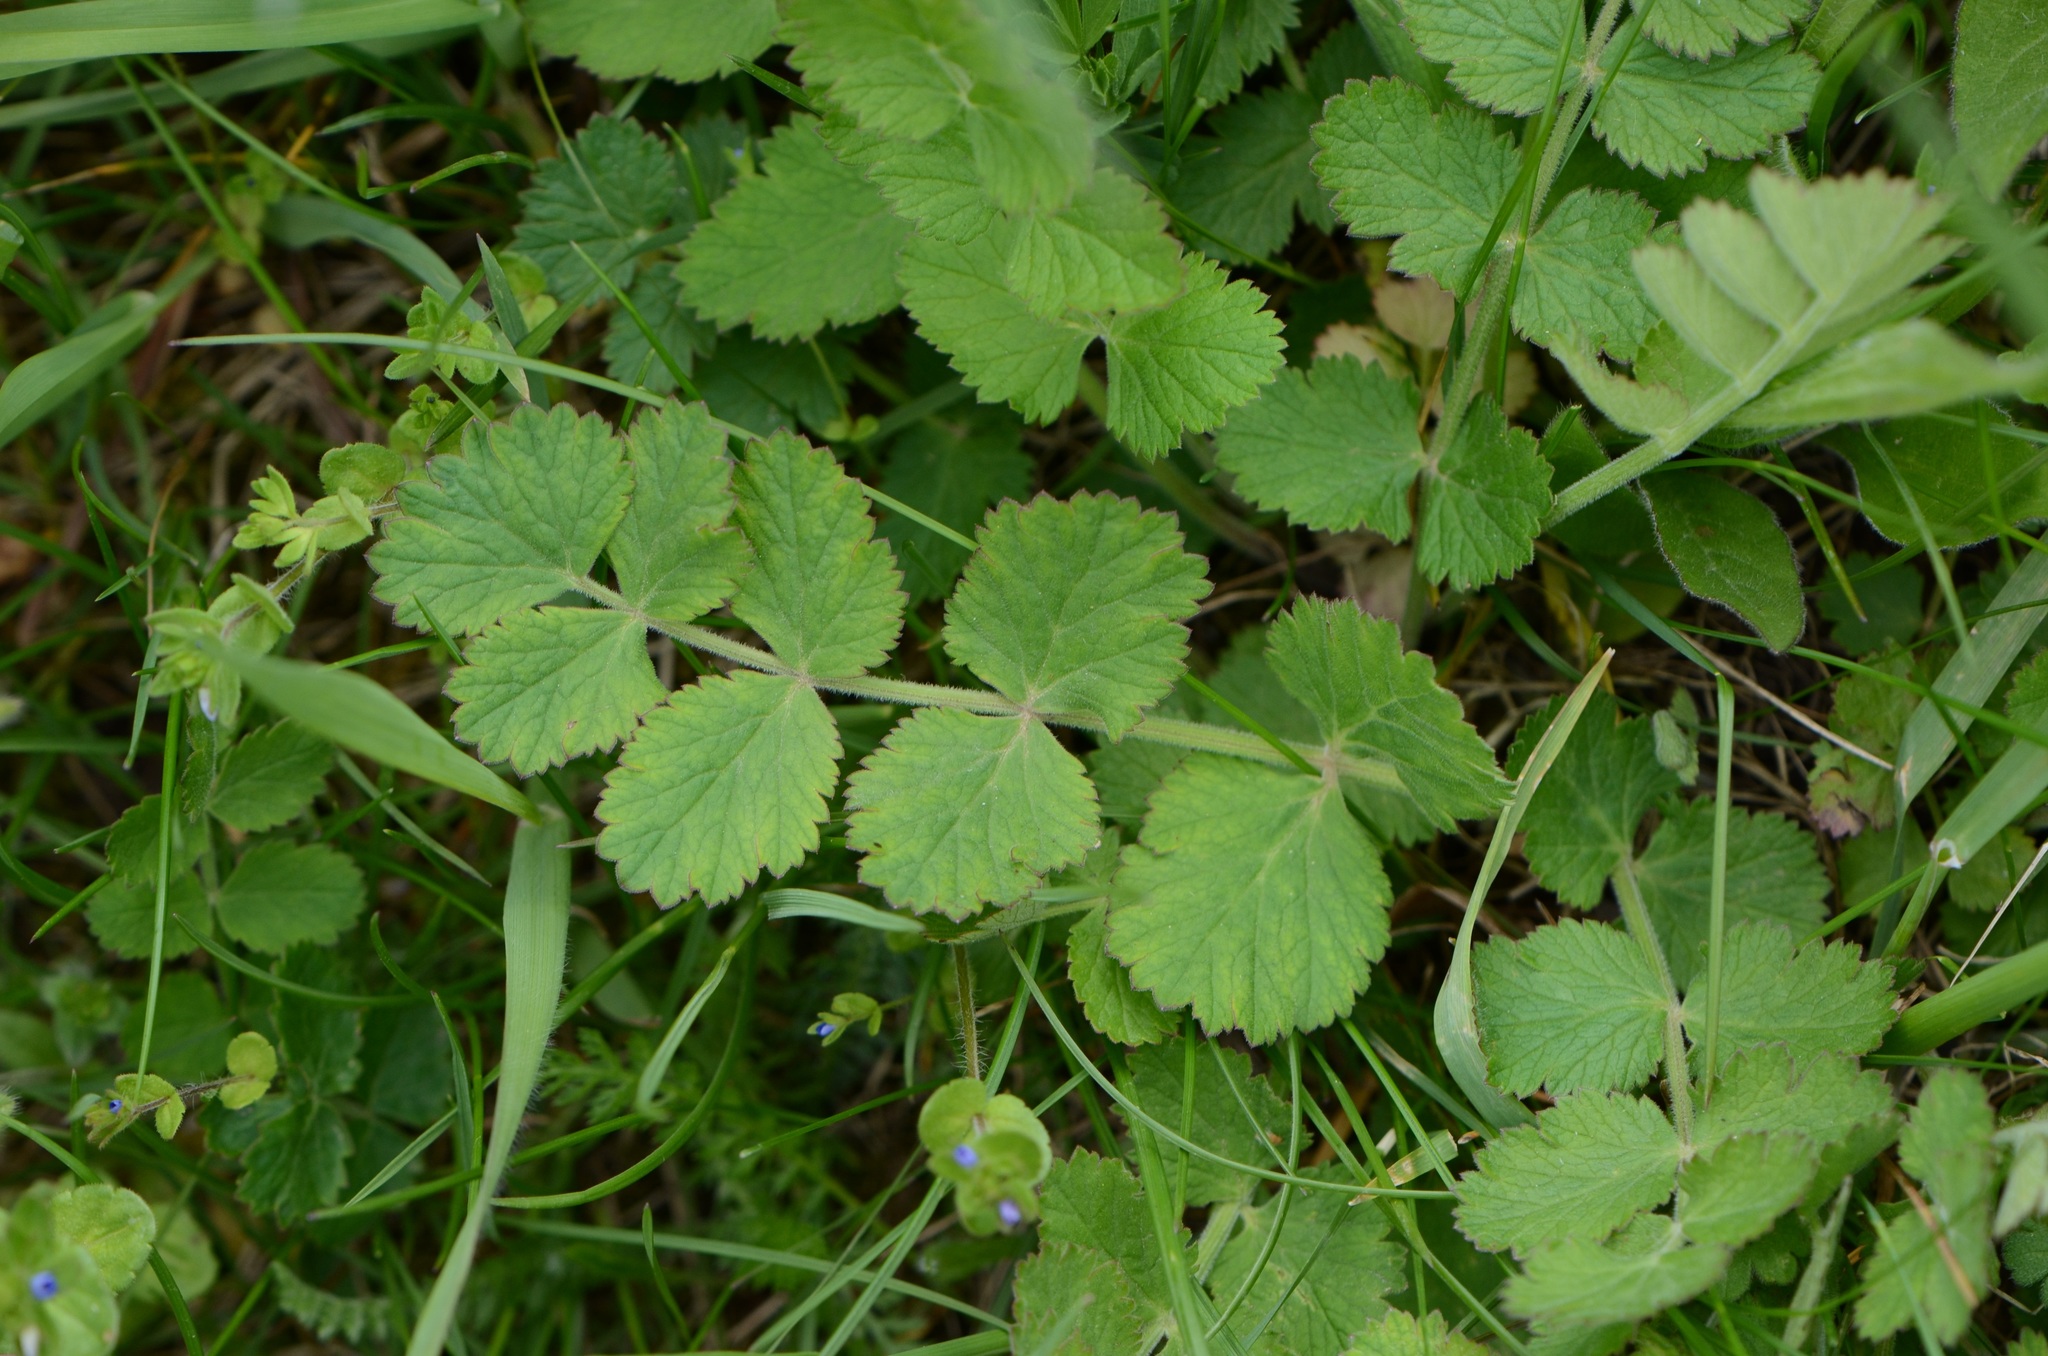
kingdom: Plantae
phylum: Tracheophyta
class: Magnoliopsida
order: Apiales
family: Apiaceae
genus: Pimpinella
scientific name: Pimpinella saxifraga
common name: Burnet-saxifrage
